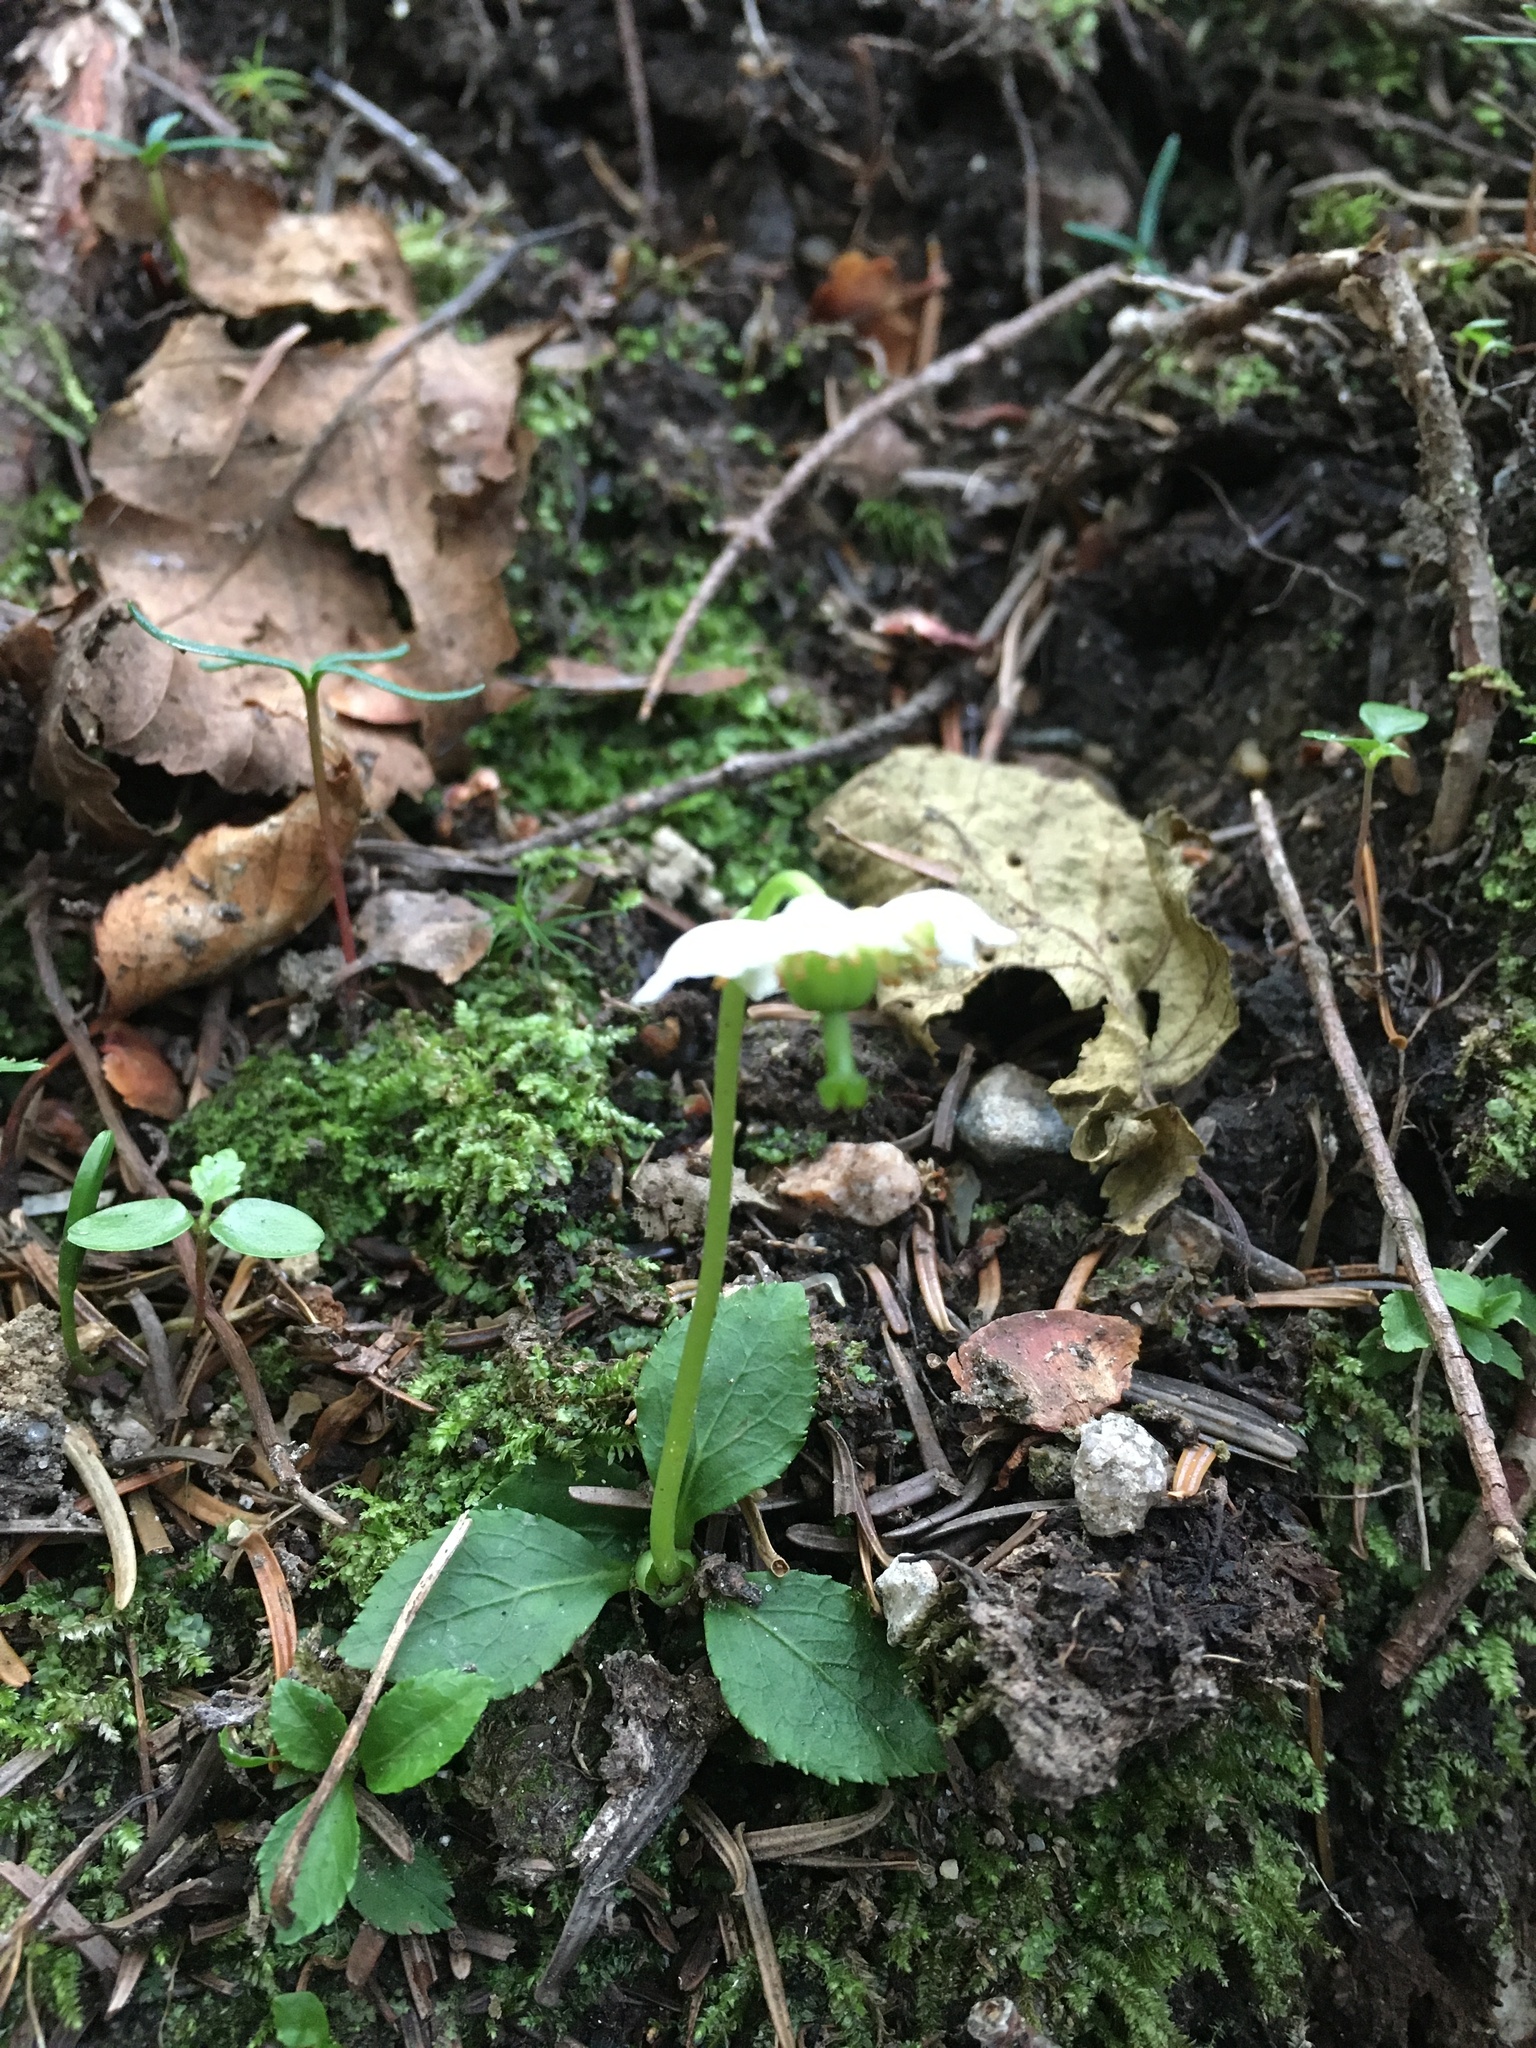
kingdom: Plantae
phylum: Tracheophyta
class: Magnoliopsida
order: Ericales
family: Ericaceae
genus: Moneses
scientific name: Moneses uniflora
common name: One-flowered wintergreen
